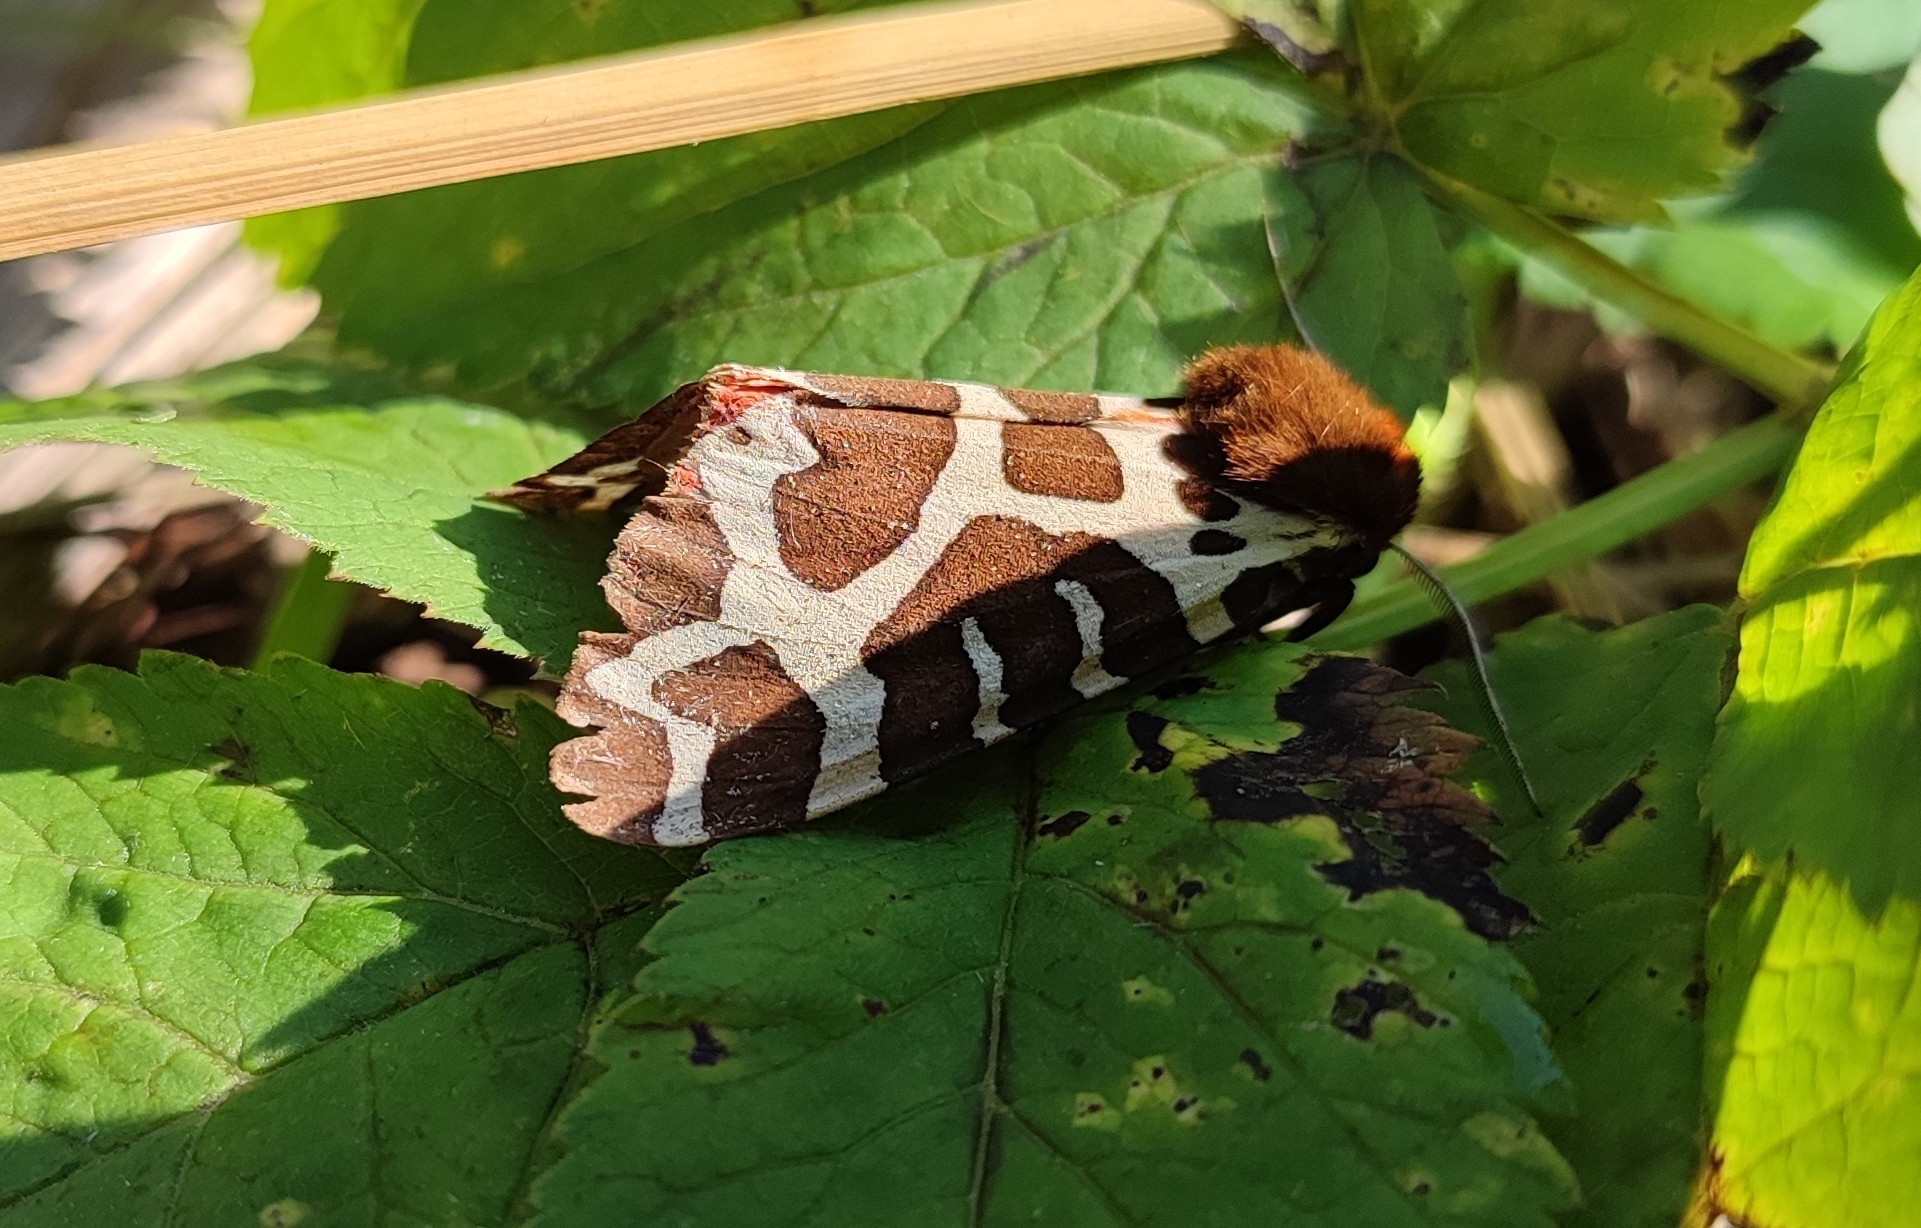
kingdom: Animalia
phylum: Arthropoda
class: Insecta
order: Lepidoptera
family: Erebidae
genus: Arctia
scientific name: Arctia caja
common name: Garden tiger
